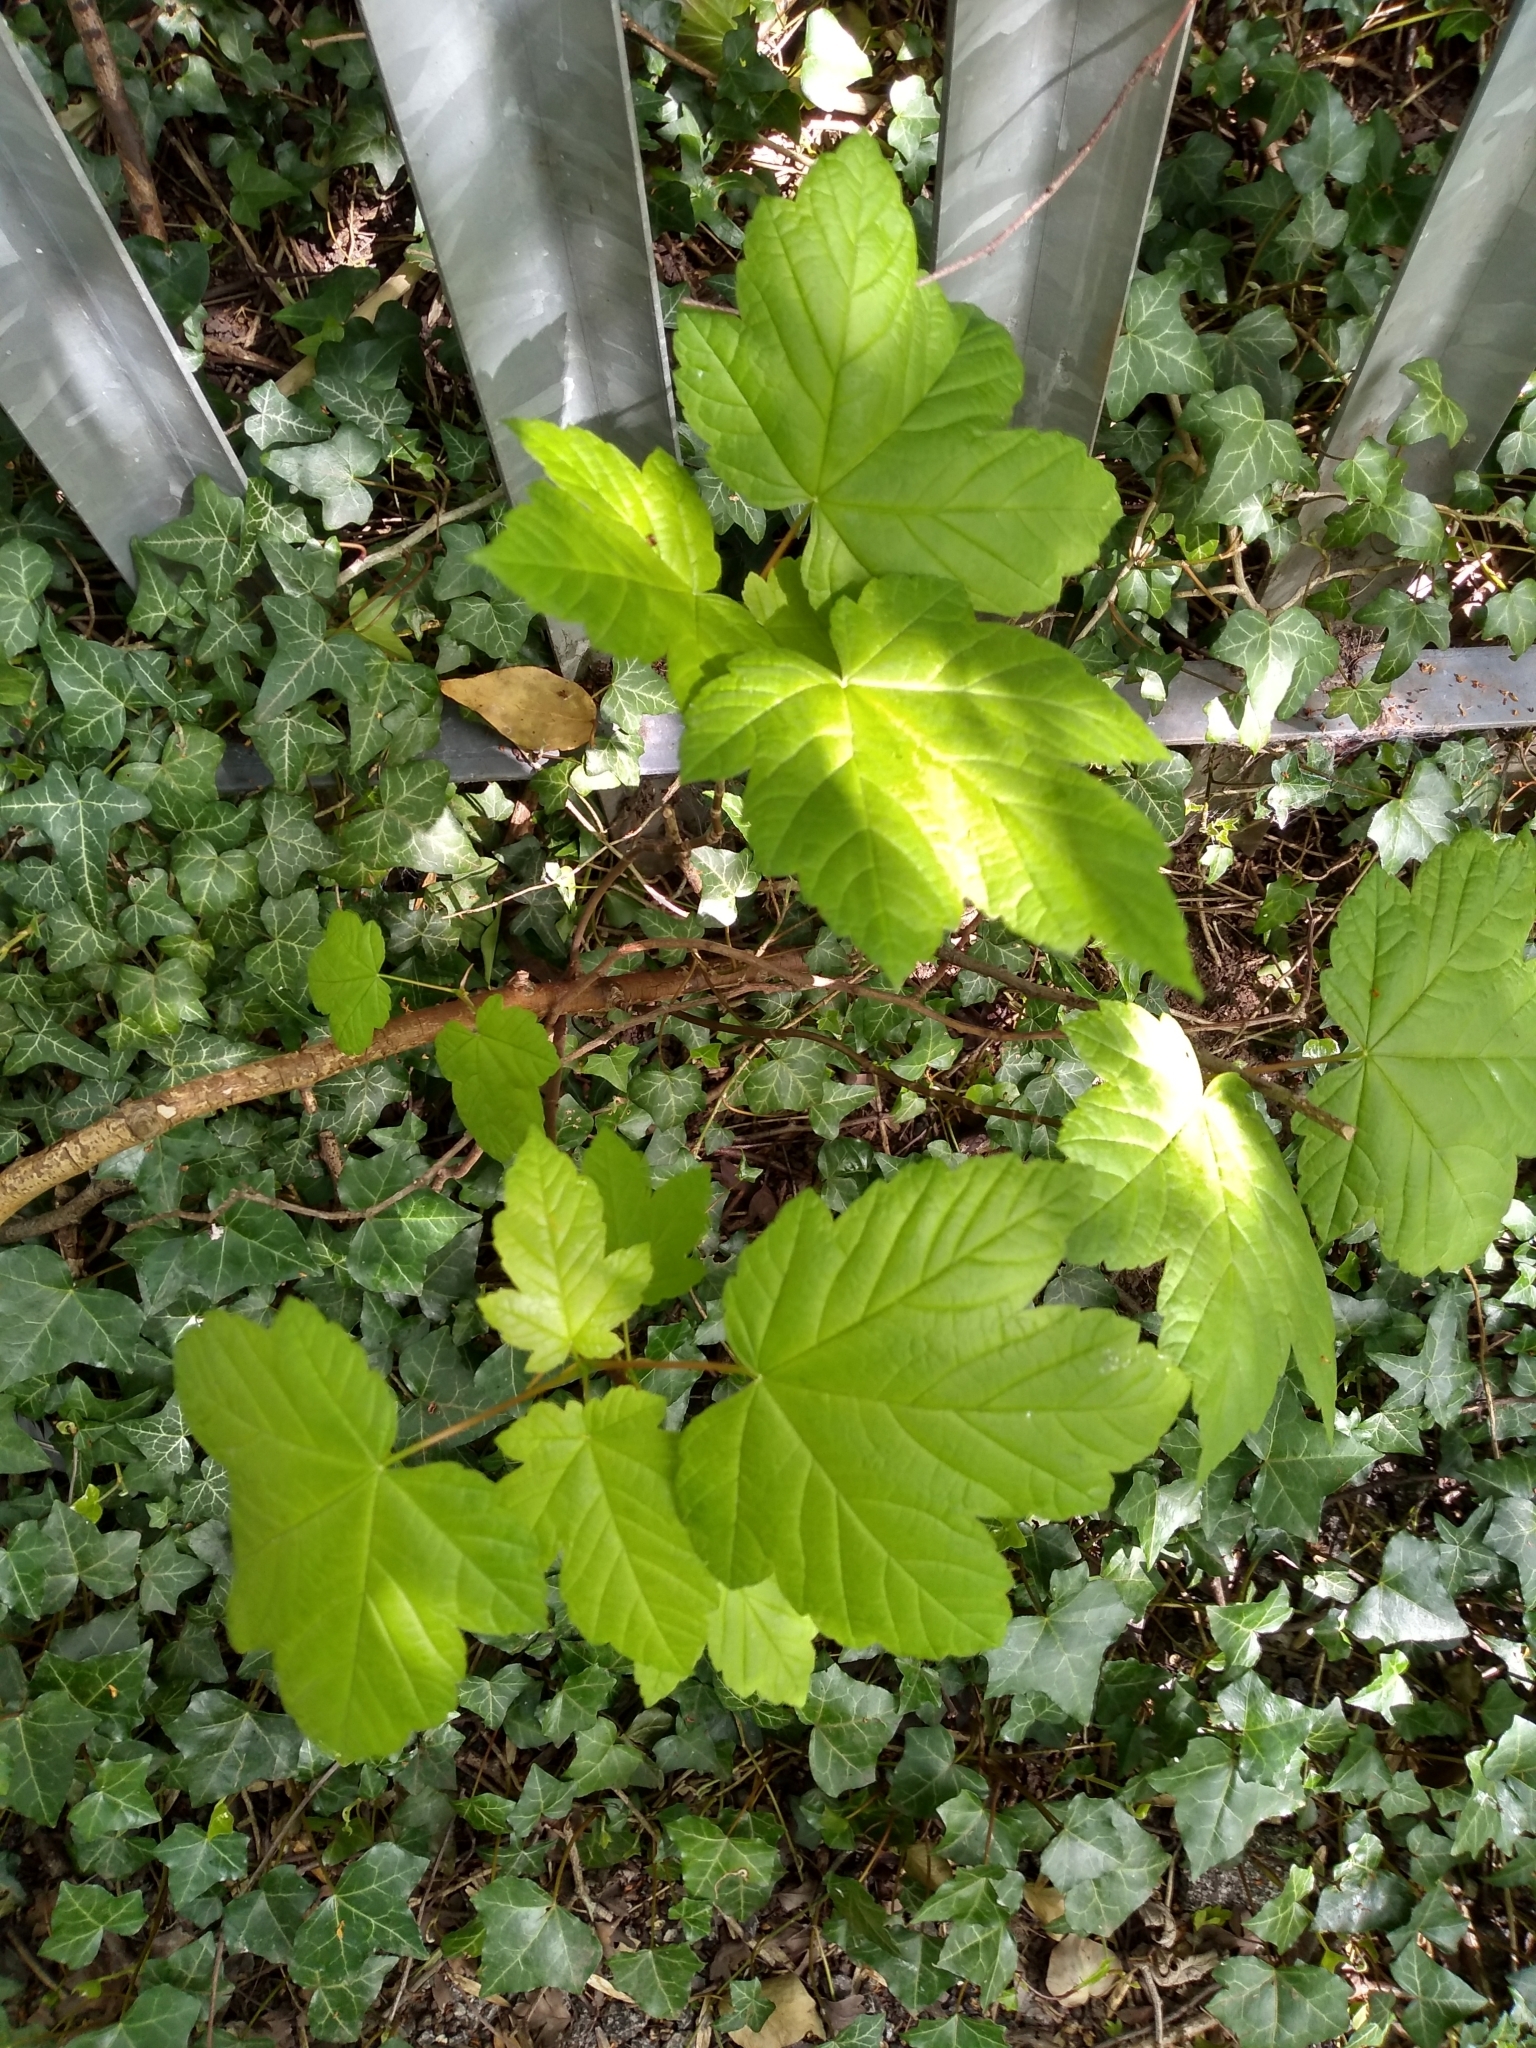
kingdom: Plantae
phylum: Tracheophyta
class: Magnoliopsida
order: Sapindales
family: Sapindaceae
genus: Acer
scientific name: Acer pseudoplatanus
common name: Sycamore
